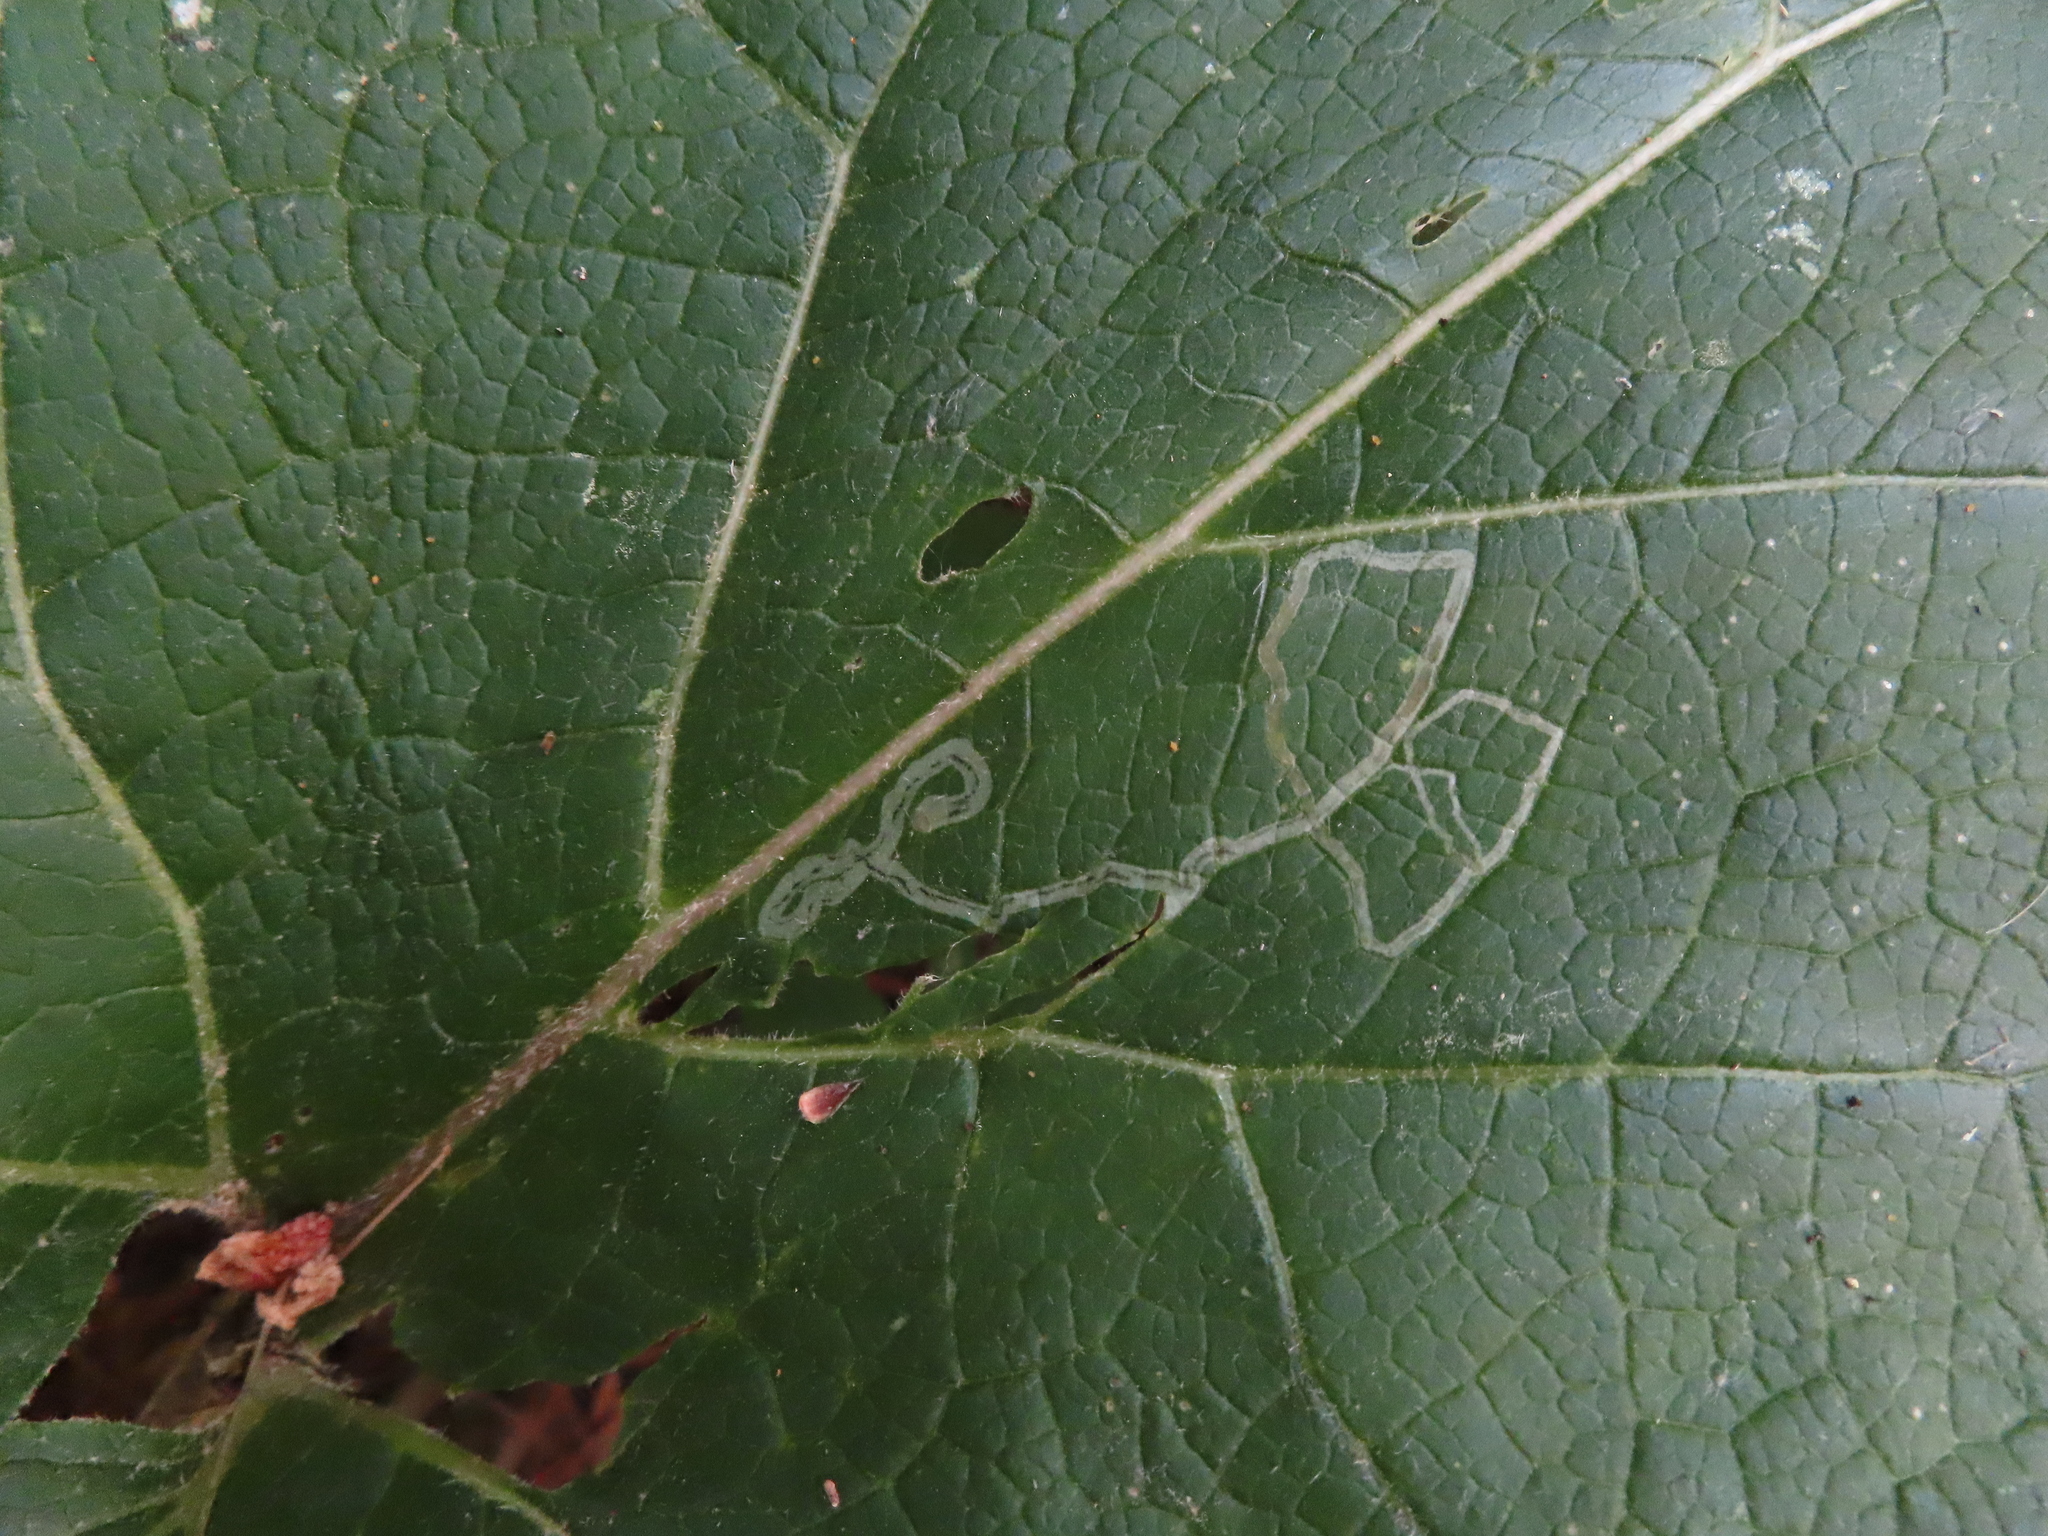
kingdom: Animalia
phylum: Arthropoda
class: Insecta
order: Diptera
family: Agromyzidae
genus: Liriomyza
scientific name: Liriomyza arctii
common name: Burdock leafminer
